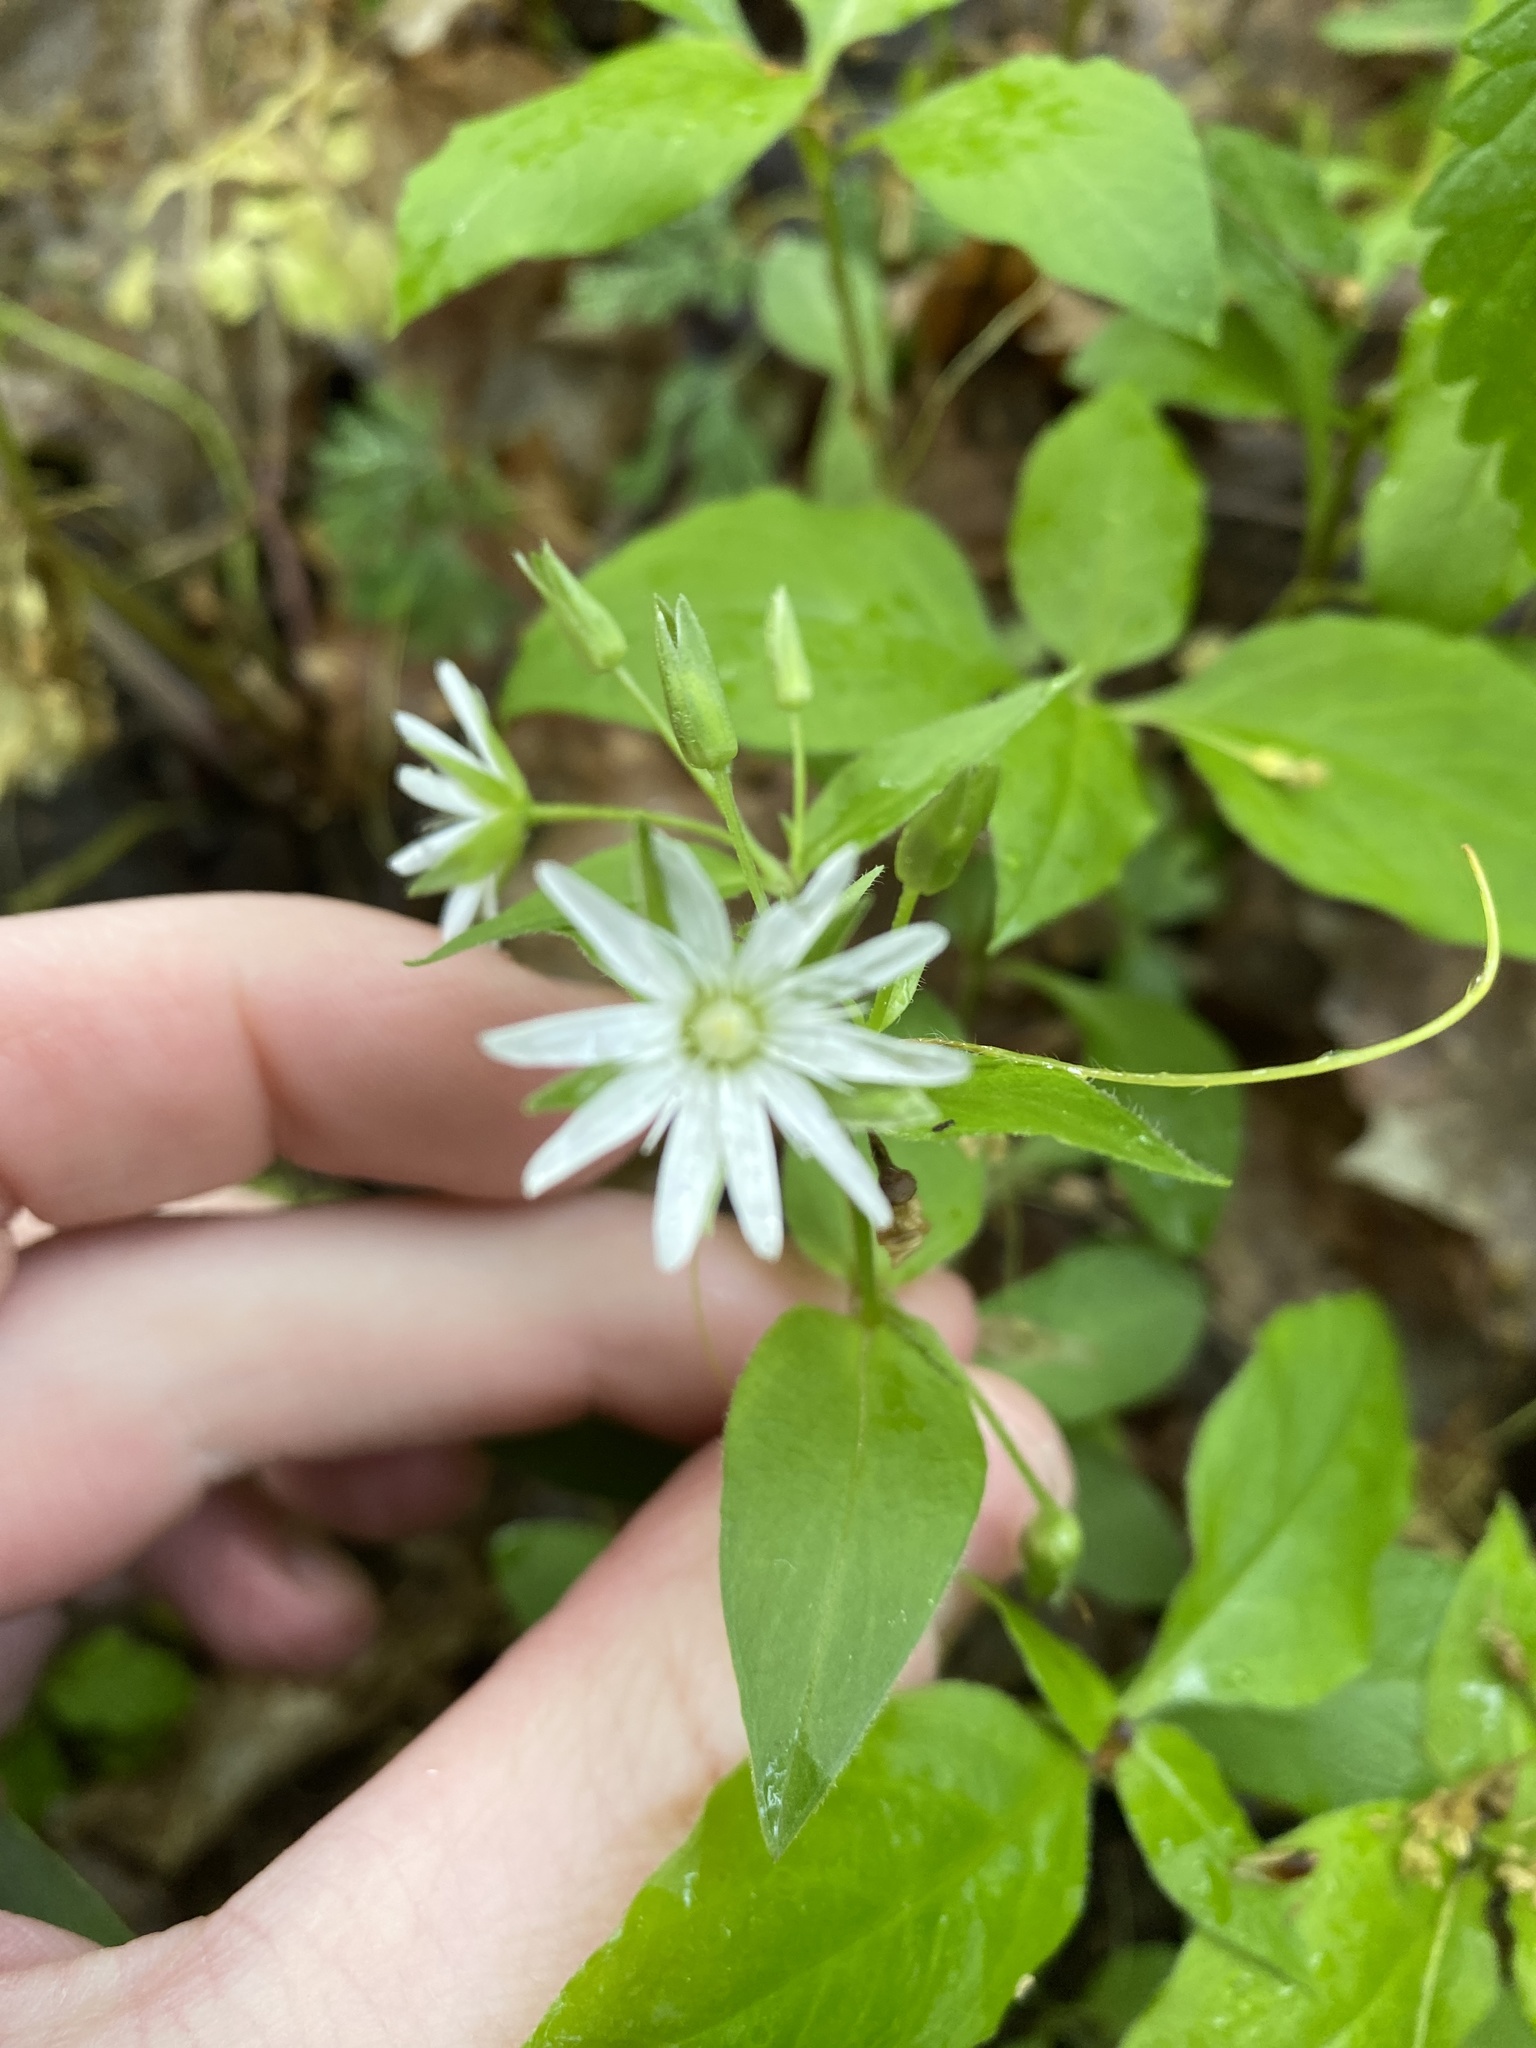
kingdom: Plantae
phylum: Tracheophyta
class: Magnoliopsida
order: Caryophyllales
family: Caryophyllaceae
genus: Stellaria
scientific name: Stellaria pubera
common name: Star chickweed
